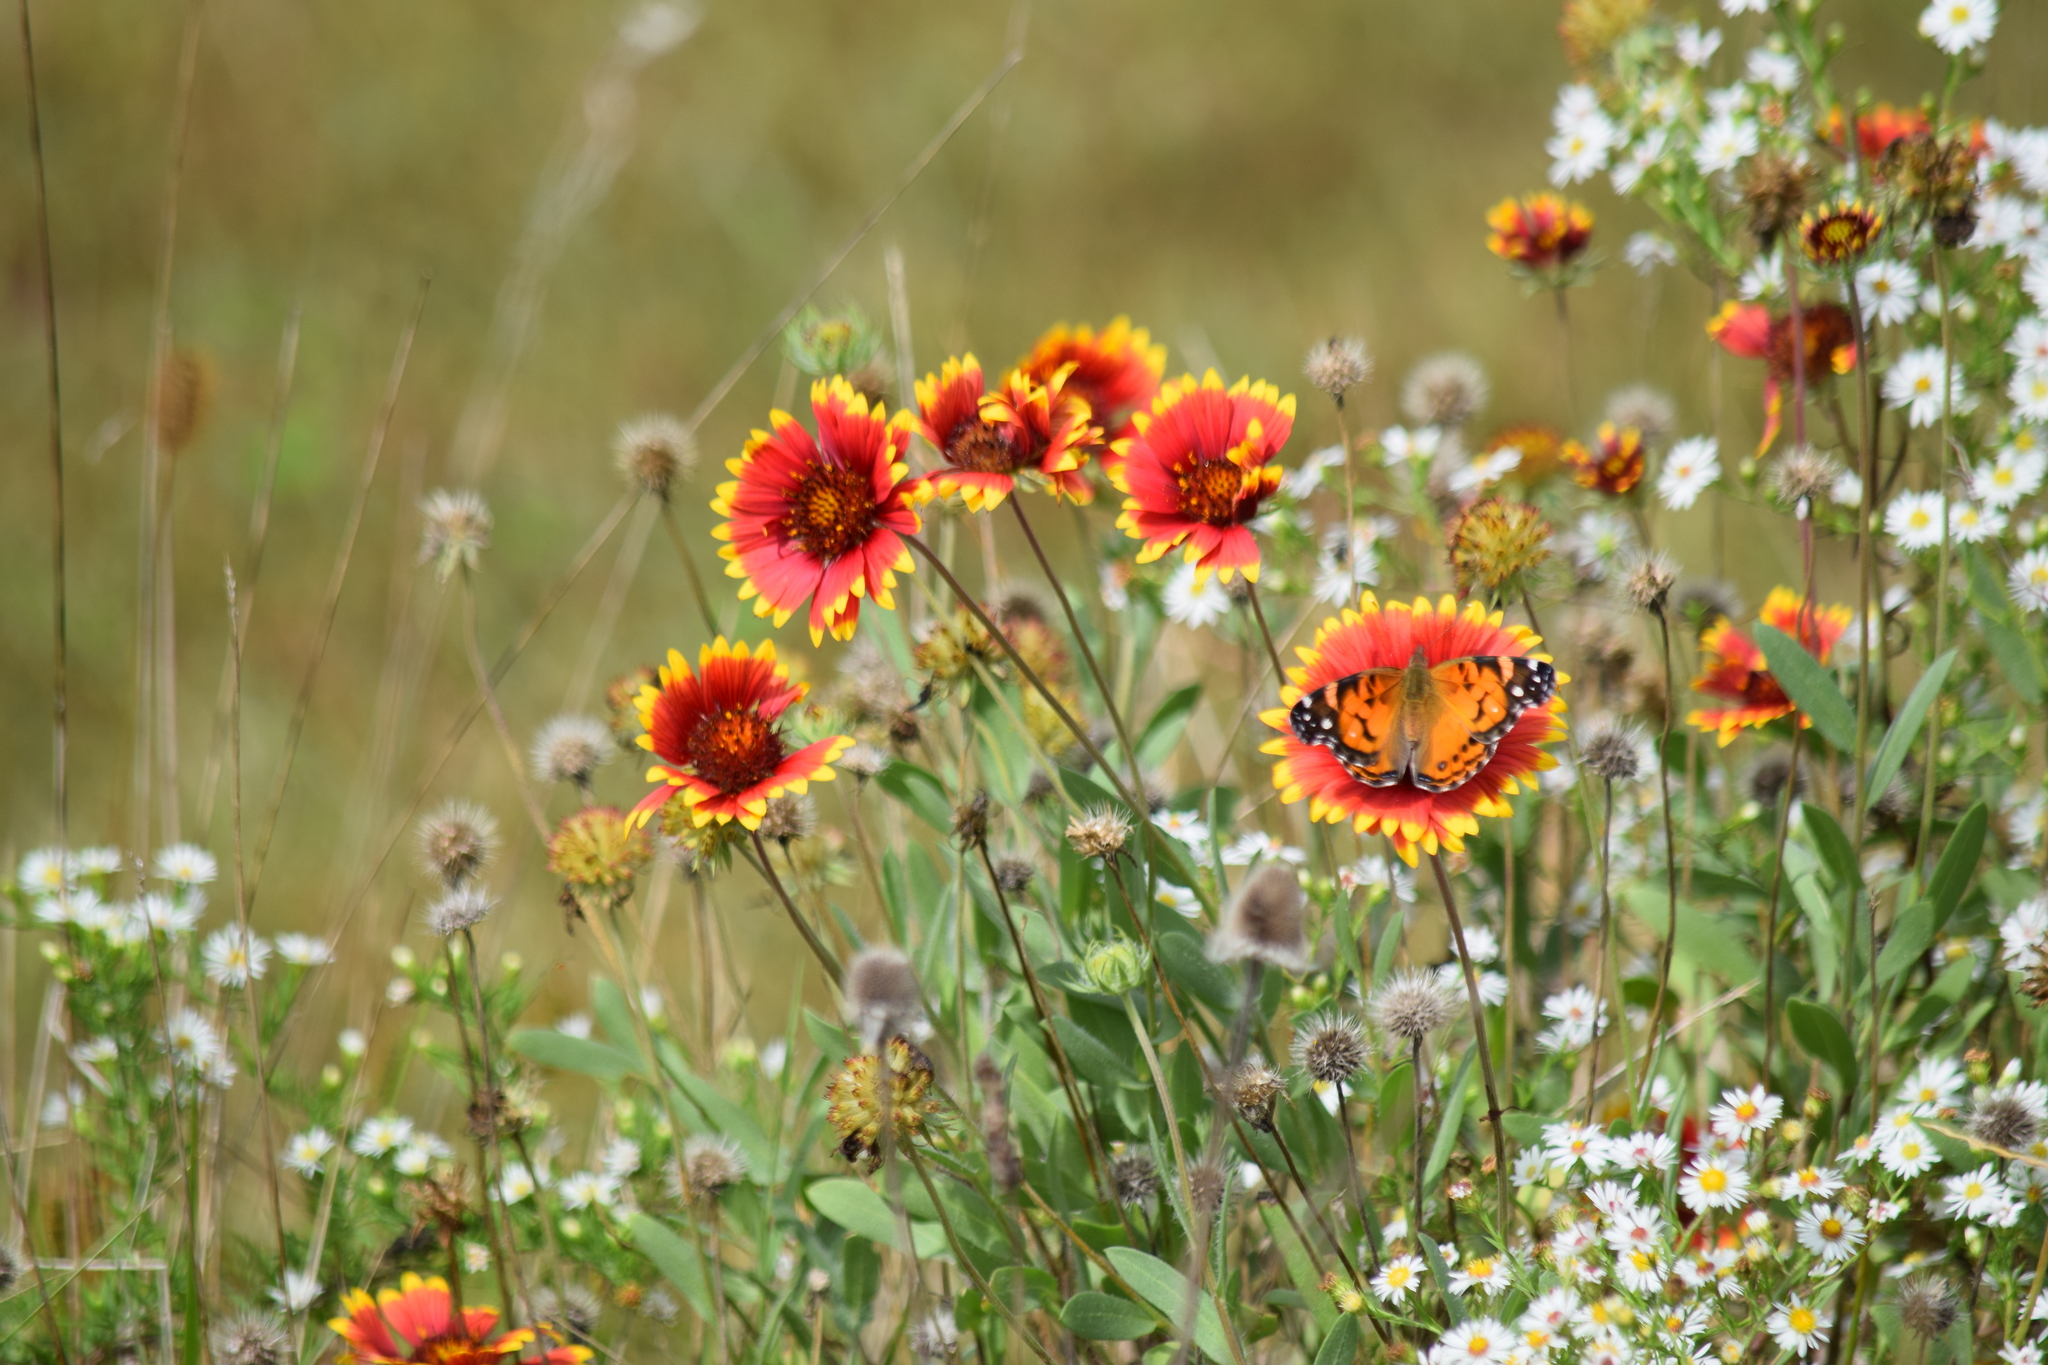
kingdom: Animalia
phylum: Arthropoda
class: Insecta
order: Lepidoptera
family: Nymphalidae
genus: Vanessa
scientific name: Vanessa virginiensis
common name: American lady
